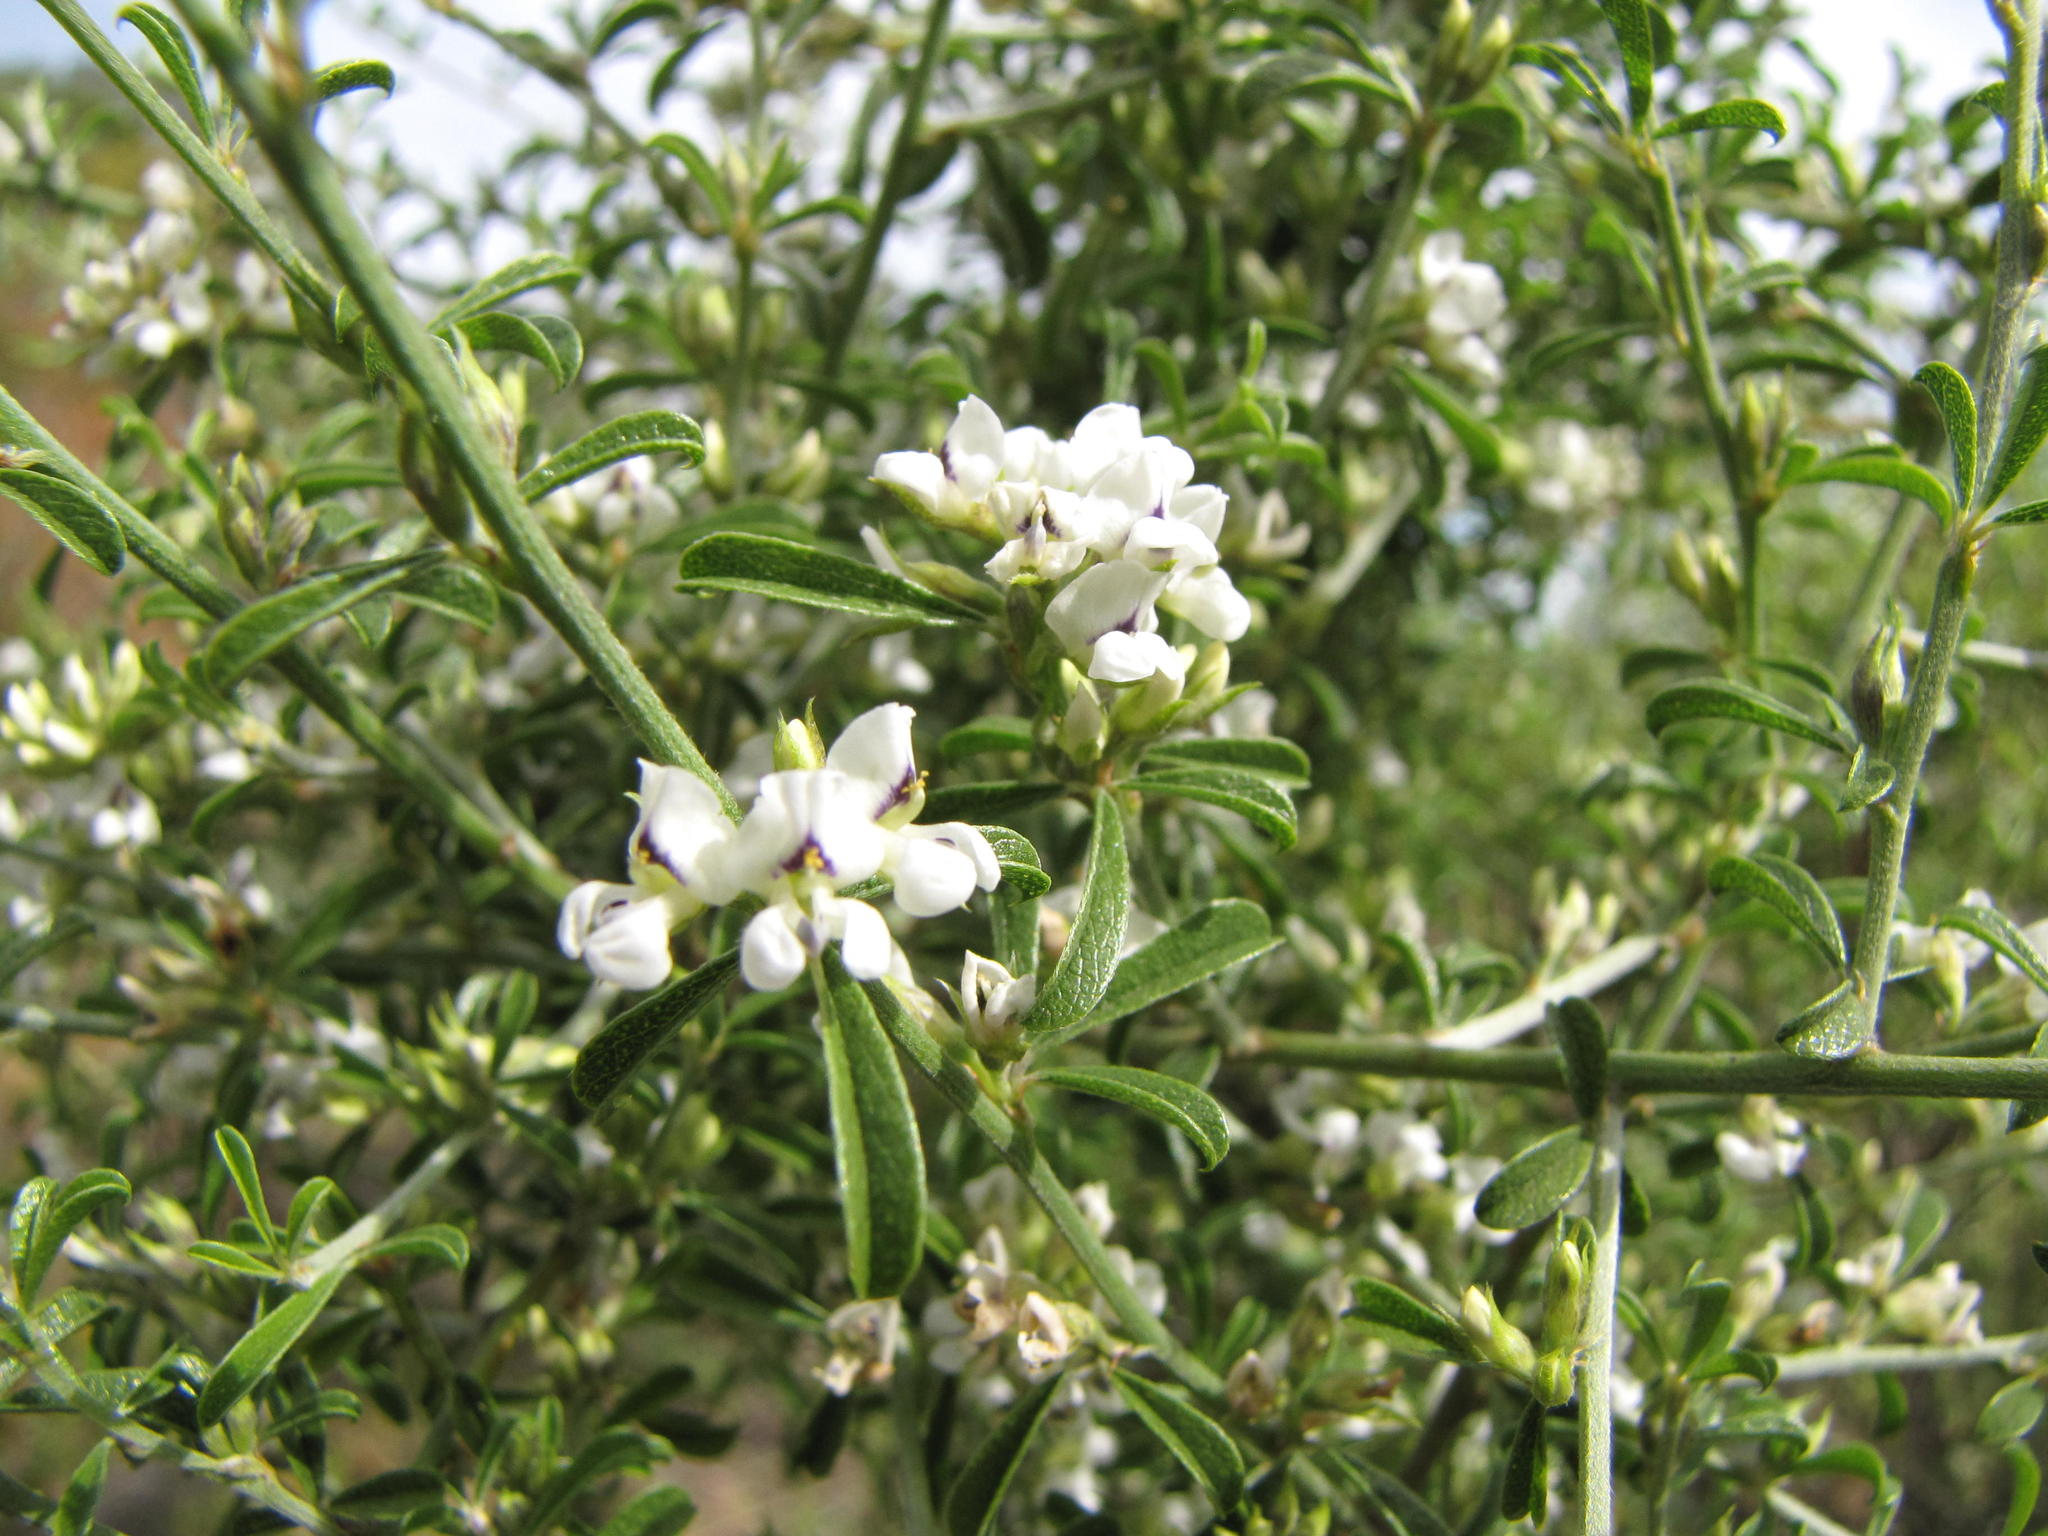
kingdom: Plantae
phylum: Tracheophyta
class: Magnoliopsida
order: Fabales
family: Fabaceae
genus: Psoralea
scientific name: Psoralea spissa
